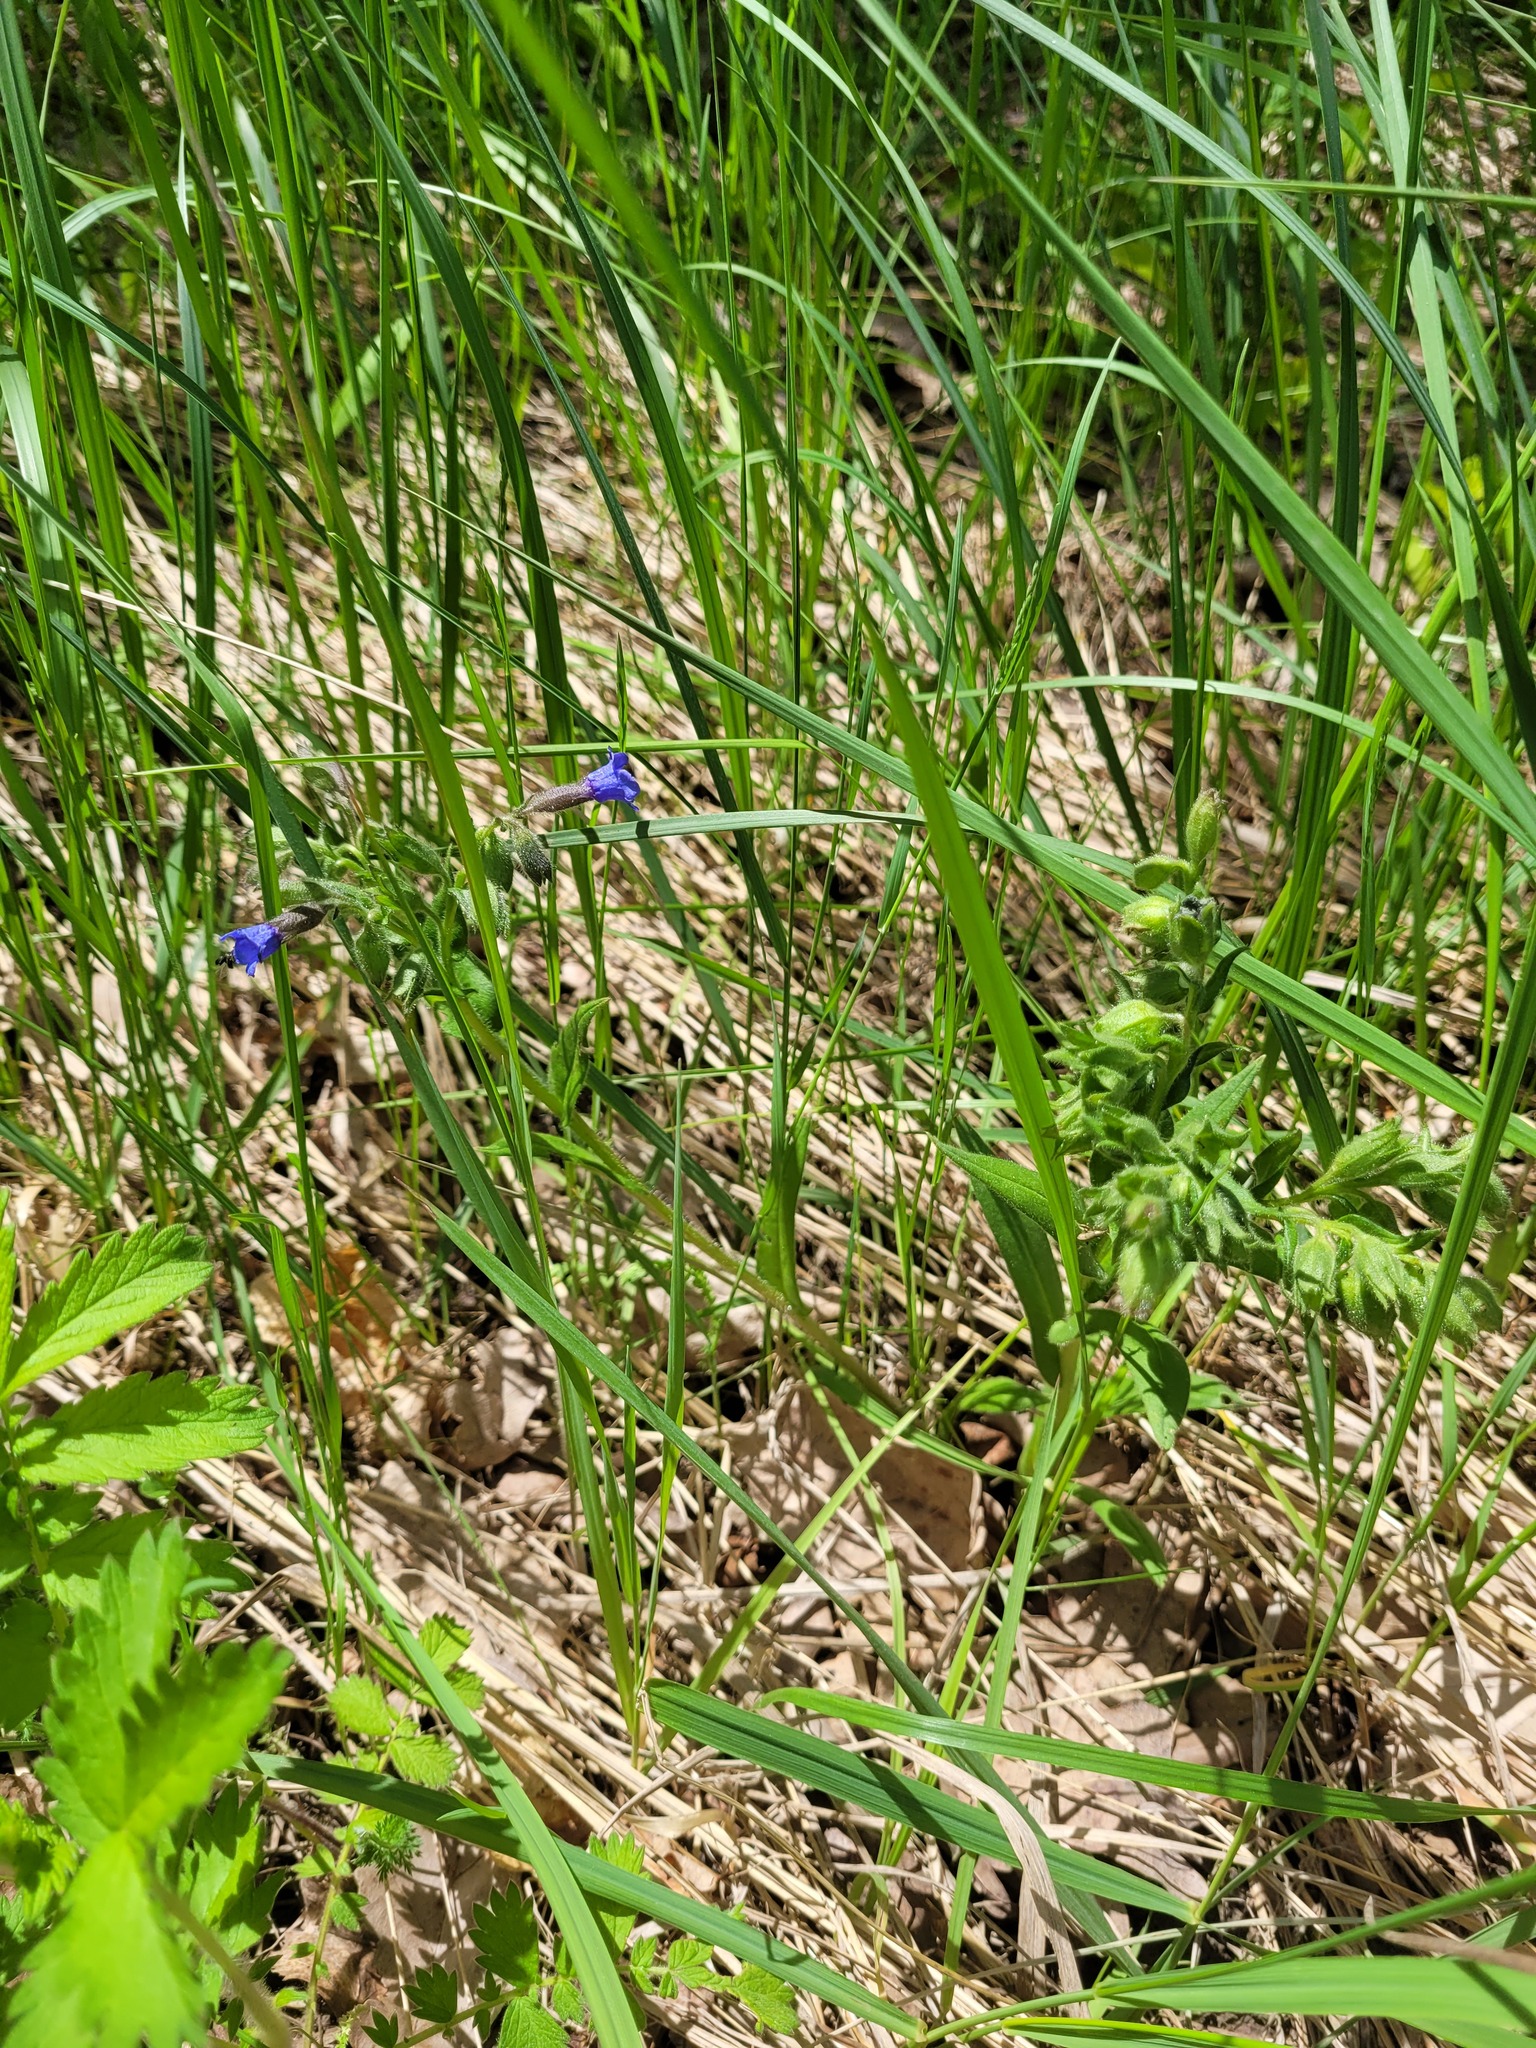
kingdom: Plantae
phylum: Tracheophyta
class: Magnoliopsida
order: Boraginales
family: Boraginaceae
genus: Pulmonaria
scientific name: Pulmonaria angustifolia
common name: Blue cowslip
